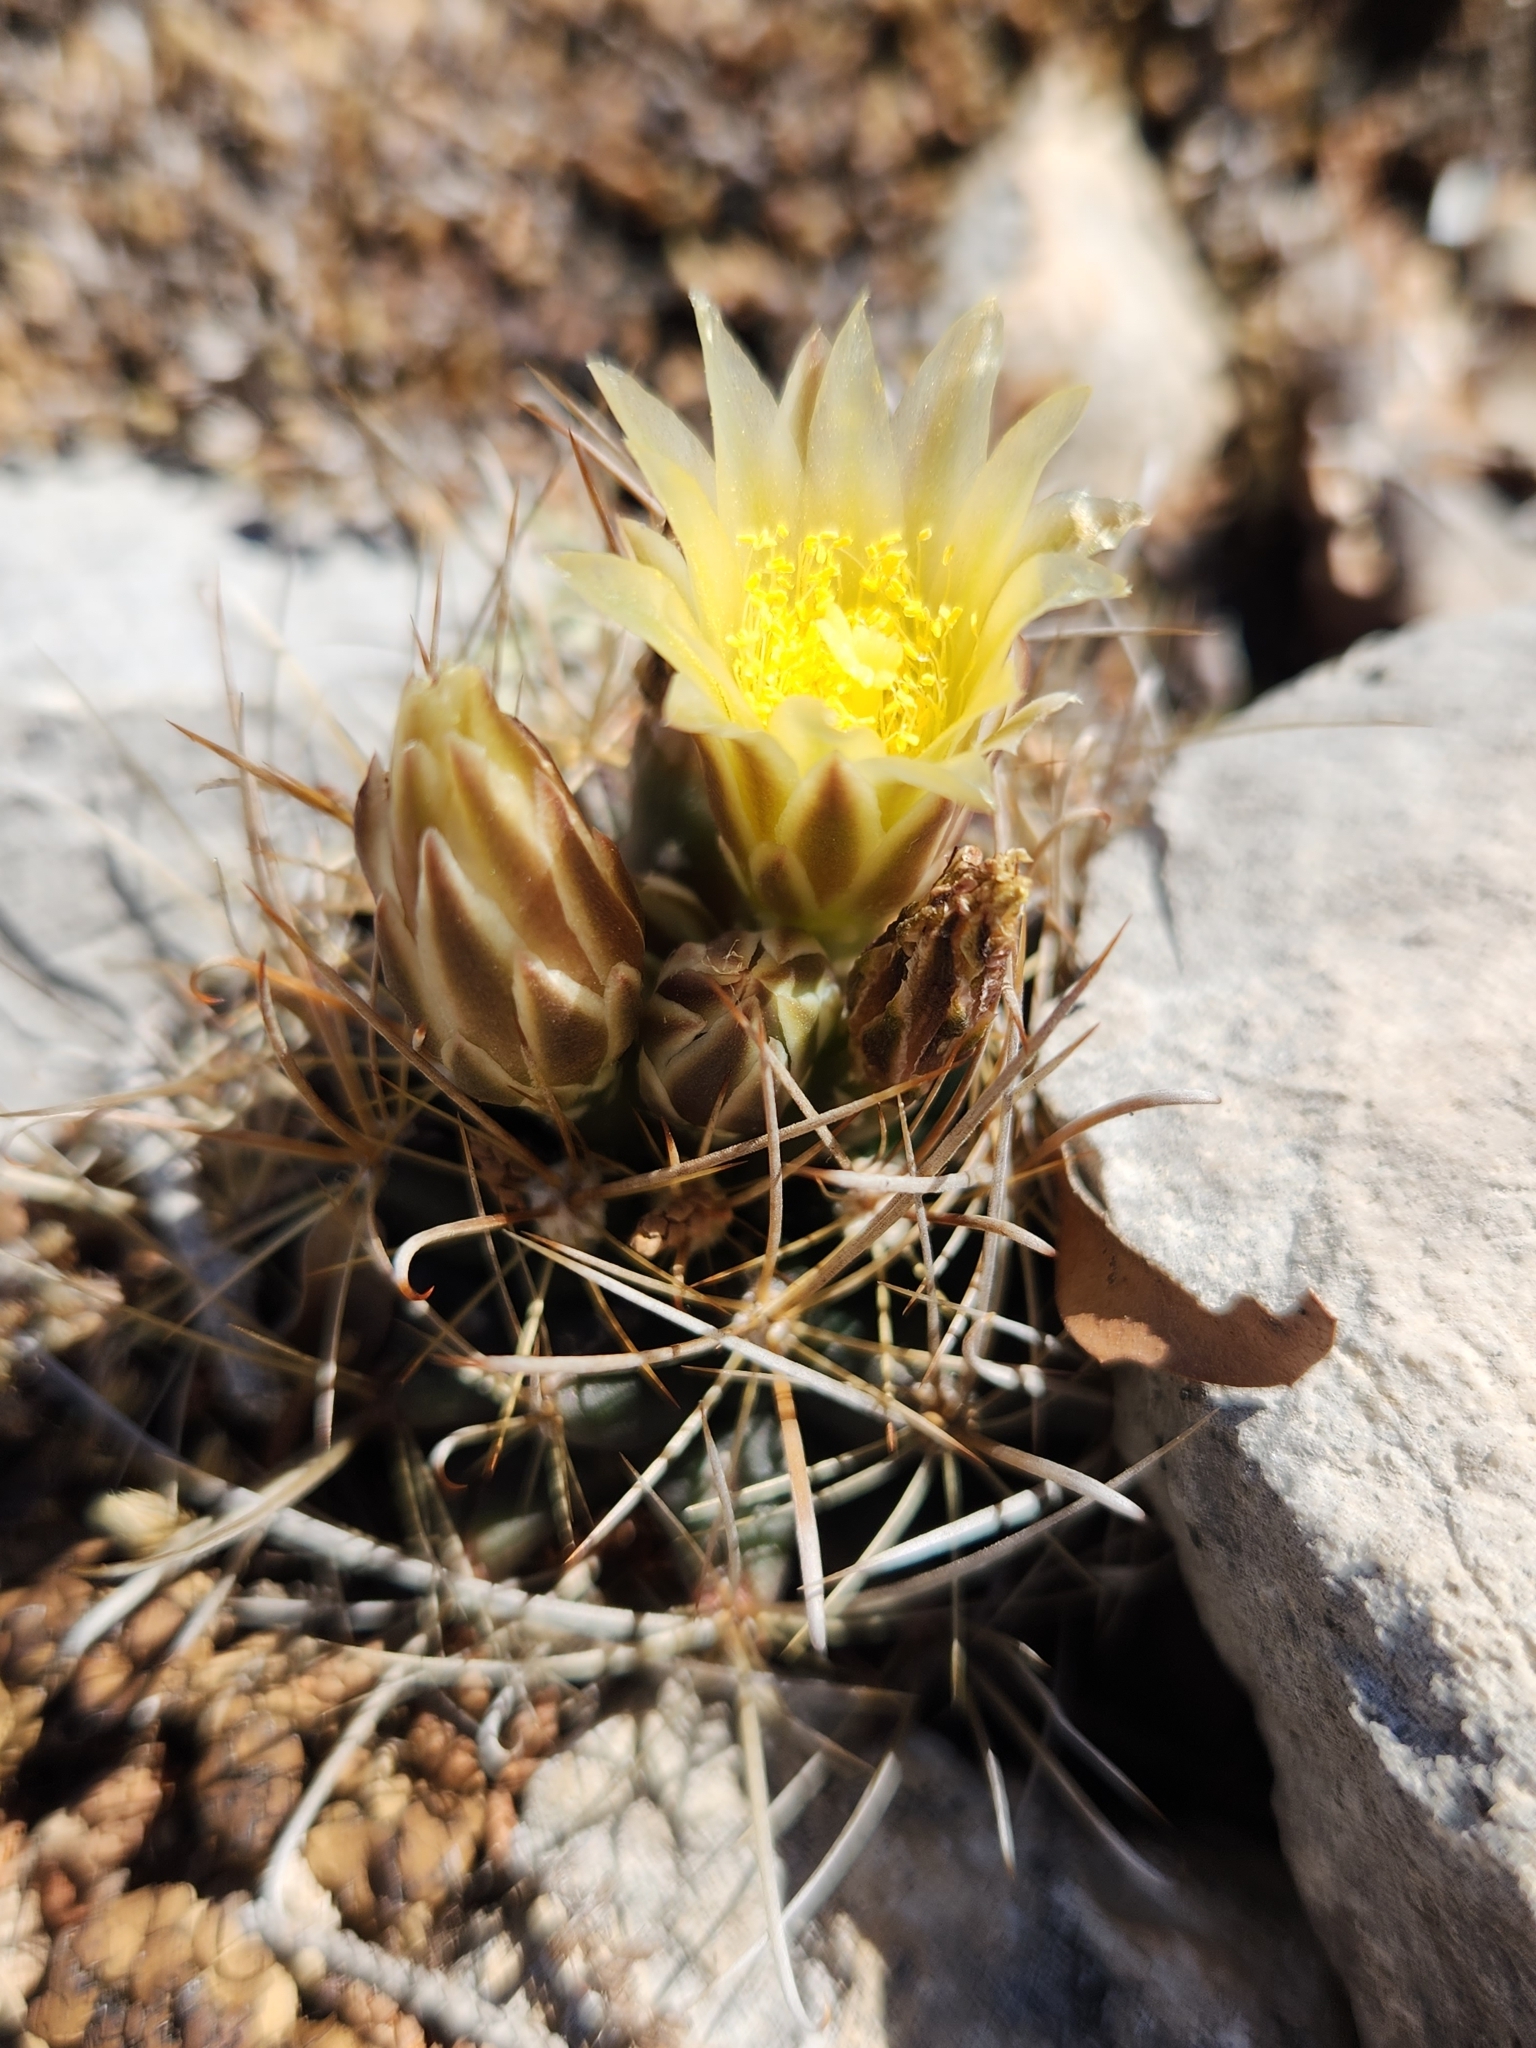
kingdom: Plantae
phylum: Tracheophyta
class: Magnoliopsida
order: Caryophyllales
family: Cactaceae
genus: Sclerocactus
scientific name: Sclerocactus brevihamatus
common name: Engelmann's fishhook cactus
